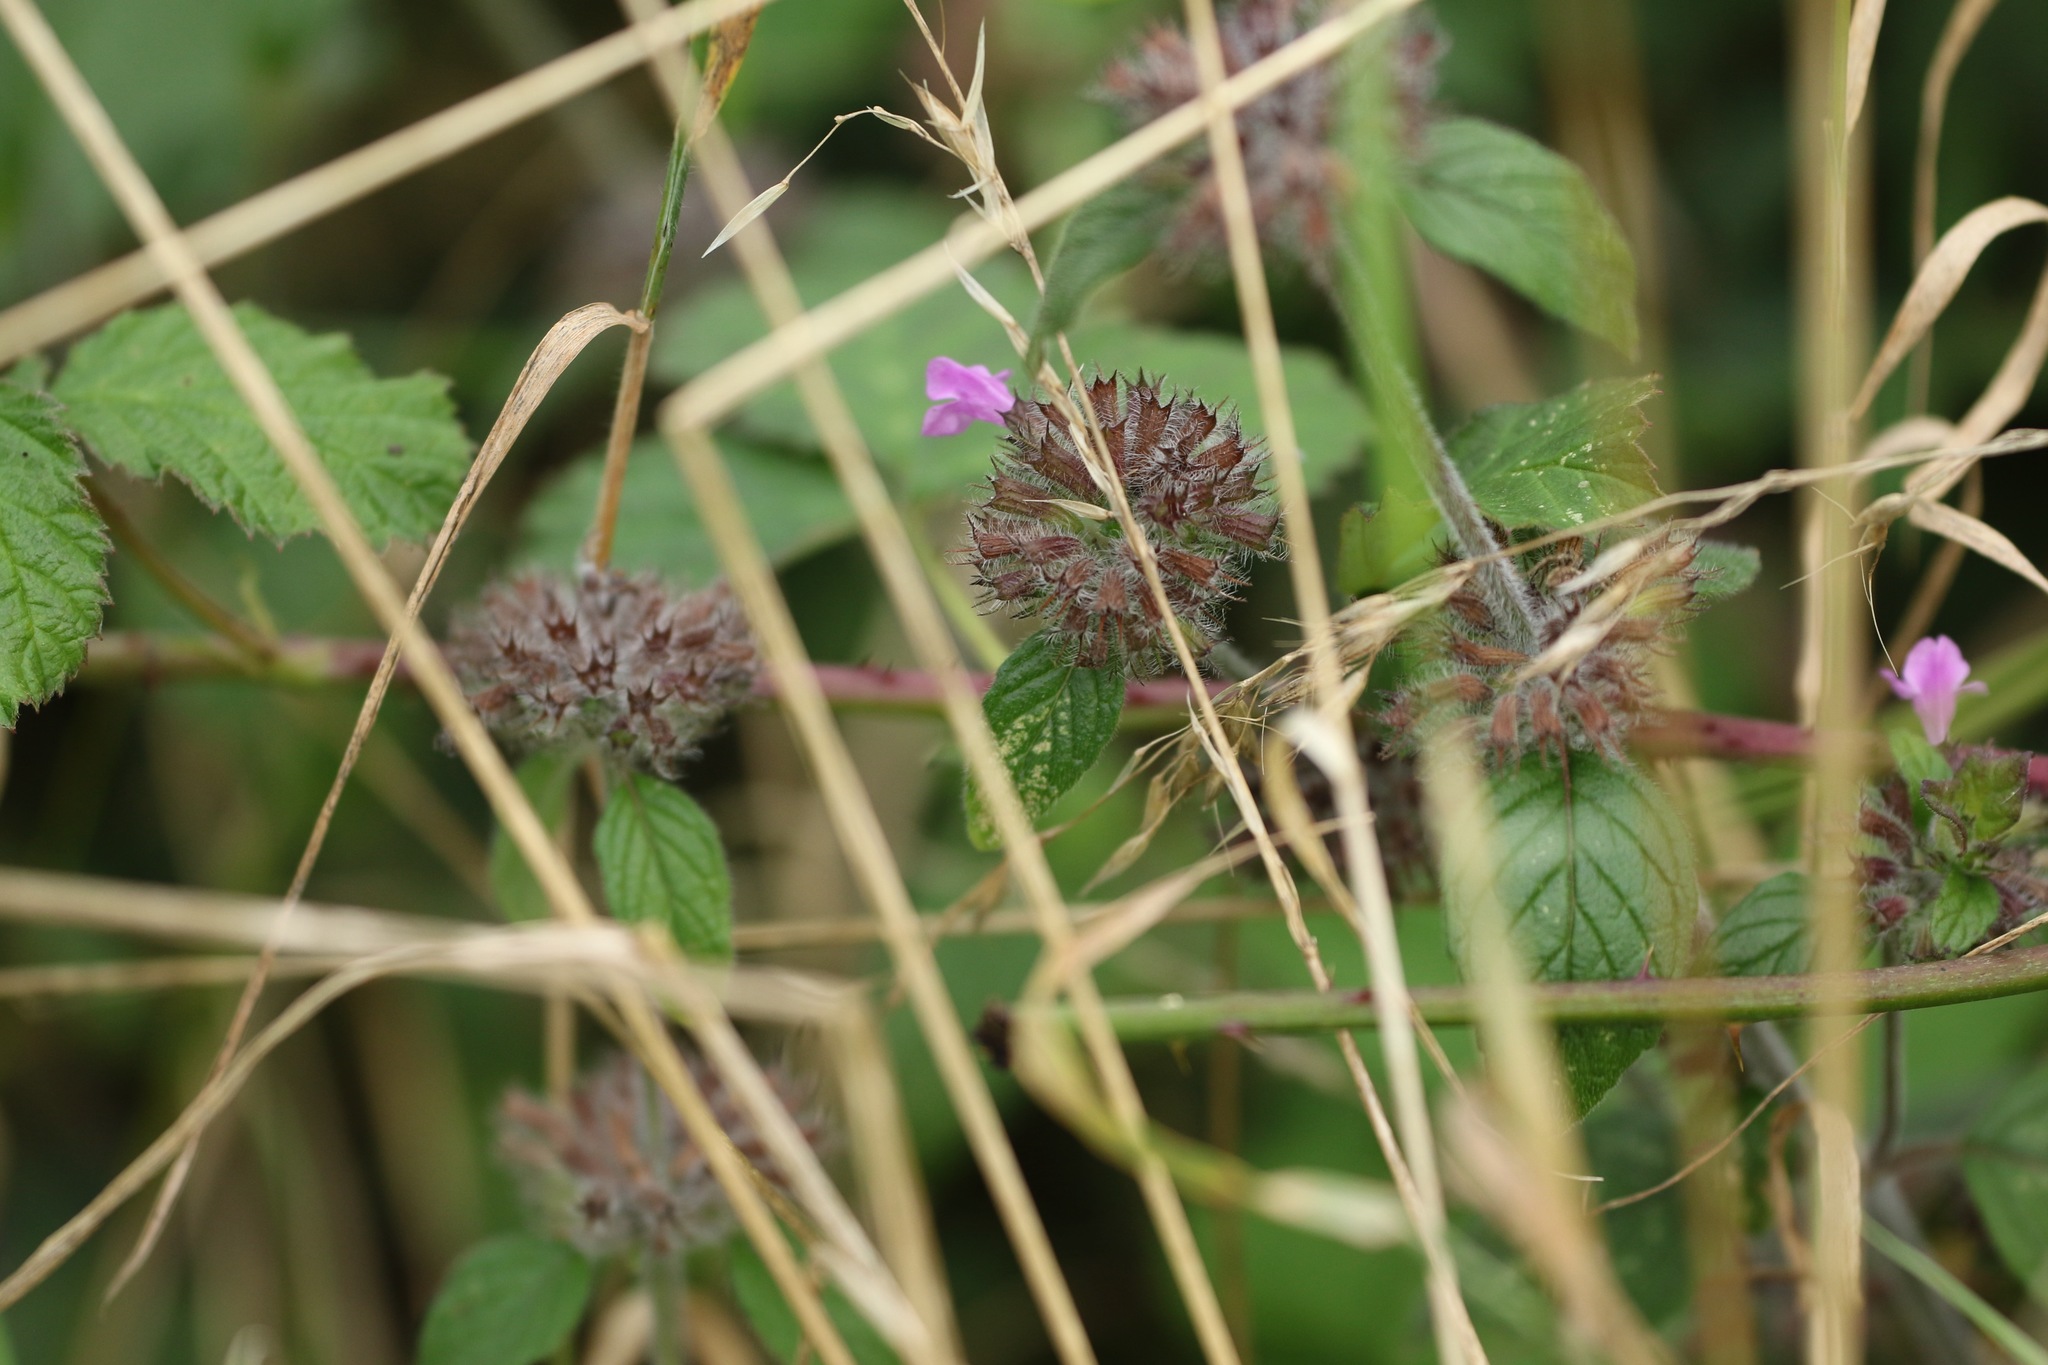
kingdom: Plantae
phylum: Tracheophyta
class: Magnoliopsida
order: Lamiales
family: Lamiaceae
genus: Clinopodium
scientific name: Clinopodium vulgare
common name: Wild basil
